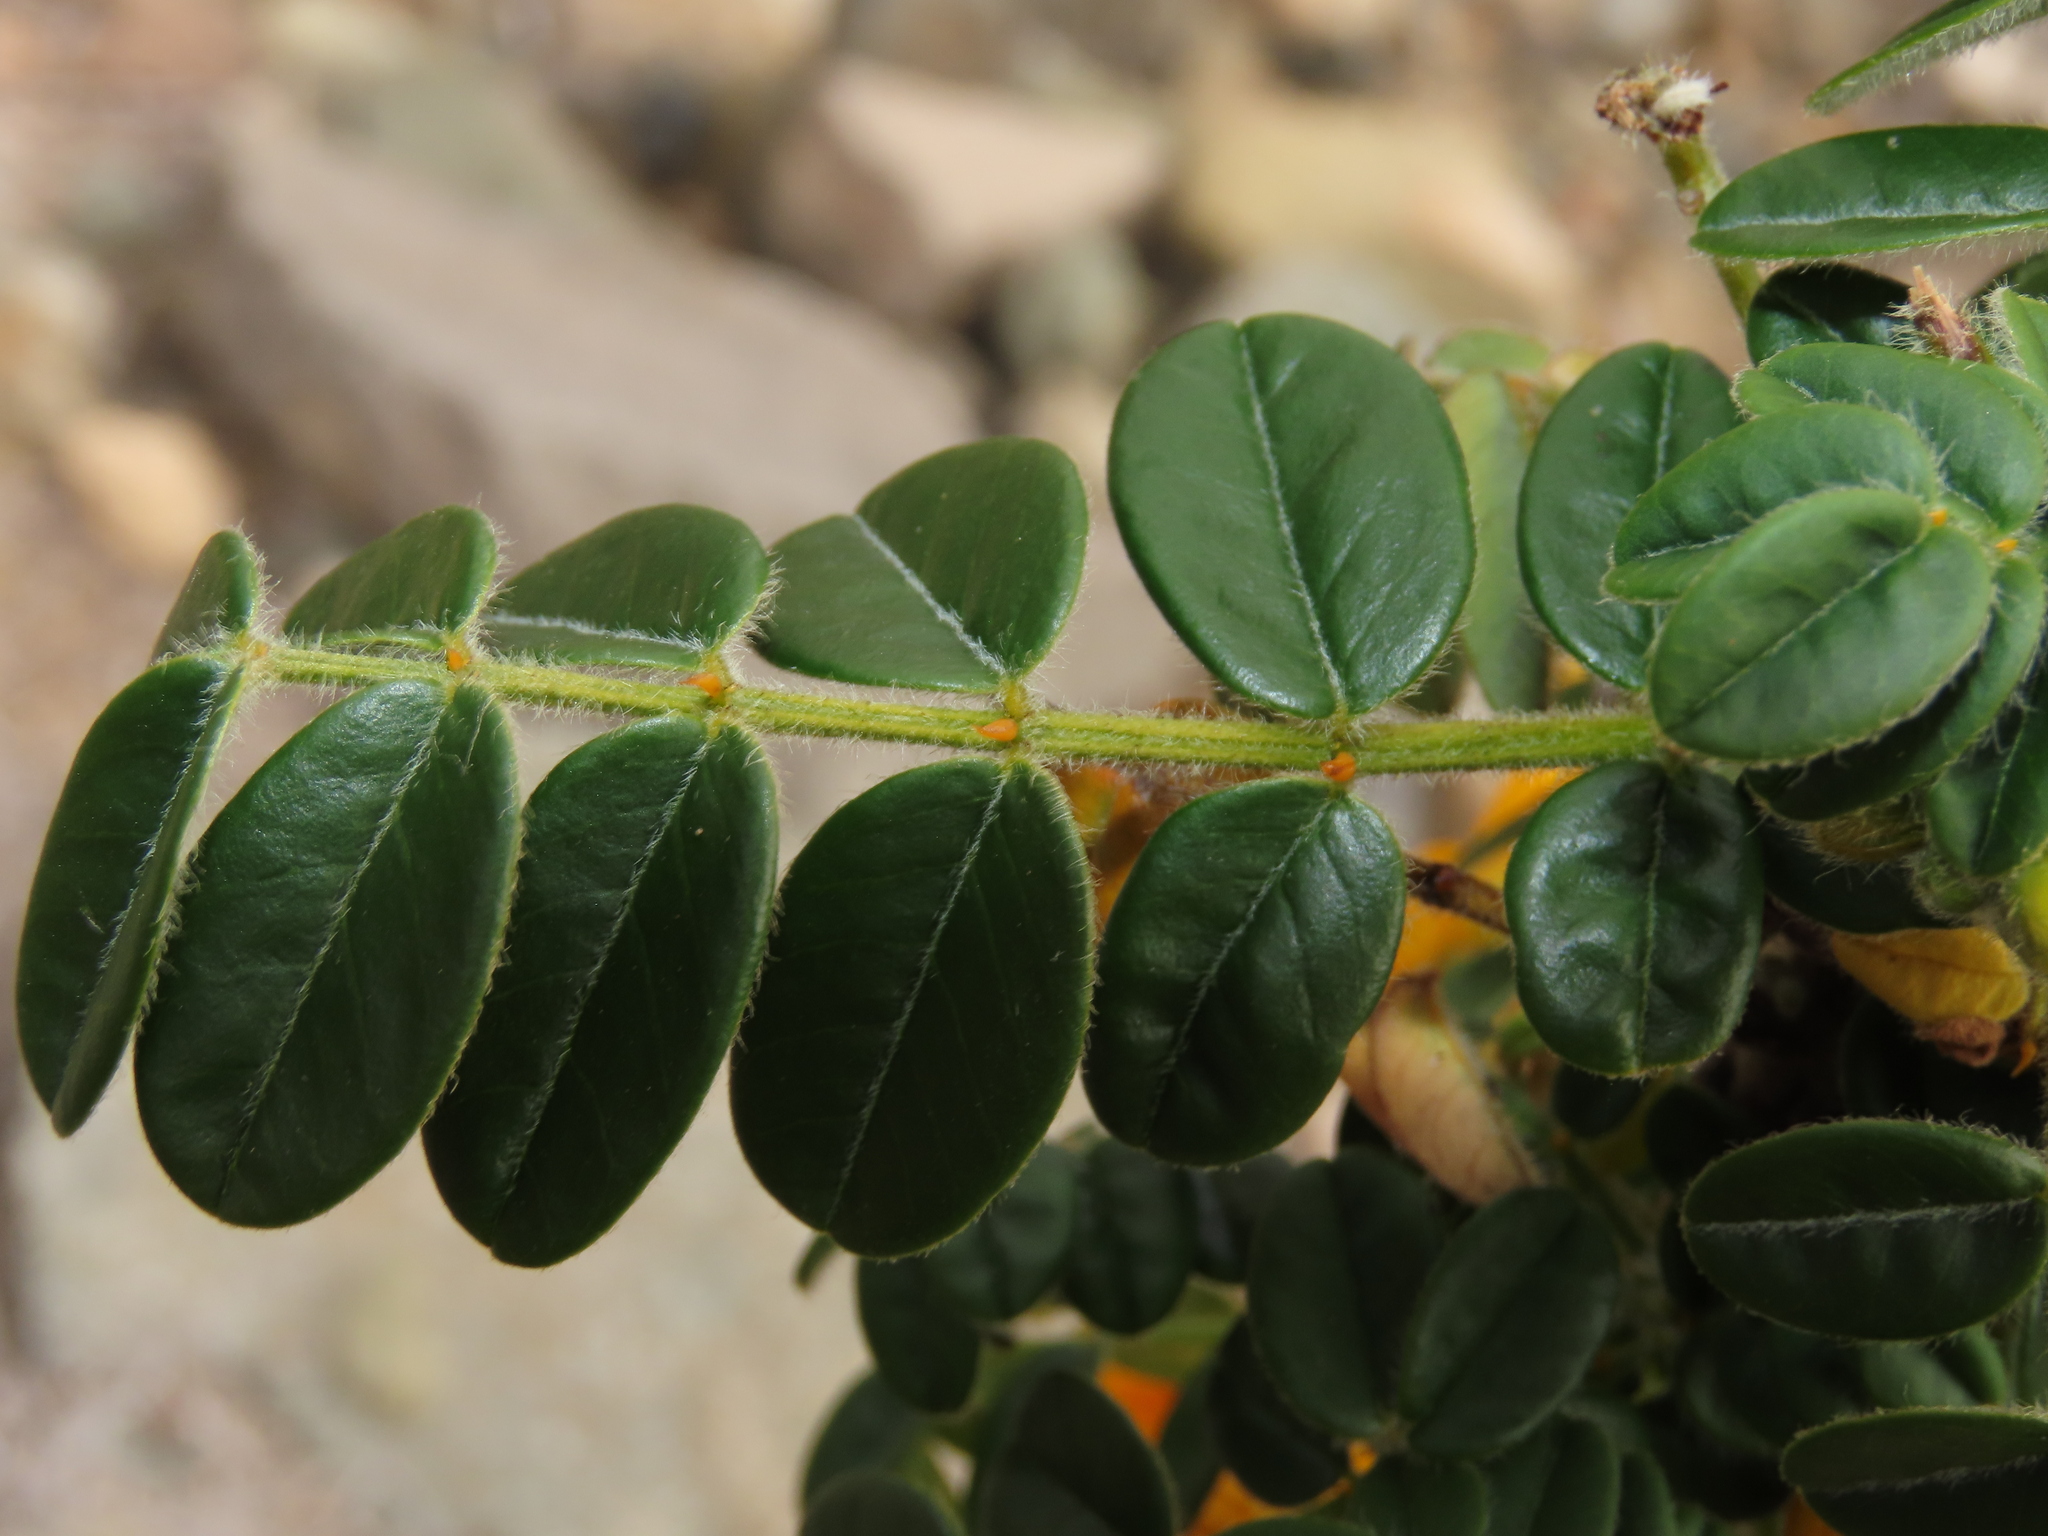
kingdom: Plantae
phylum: Tracheophyta
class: Magnoliopsida
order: Fabales
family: Fabaceae
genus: Senna
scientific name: Senna paposana
